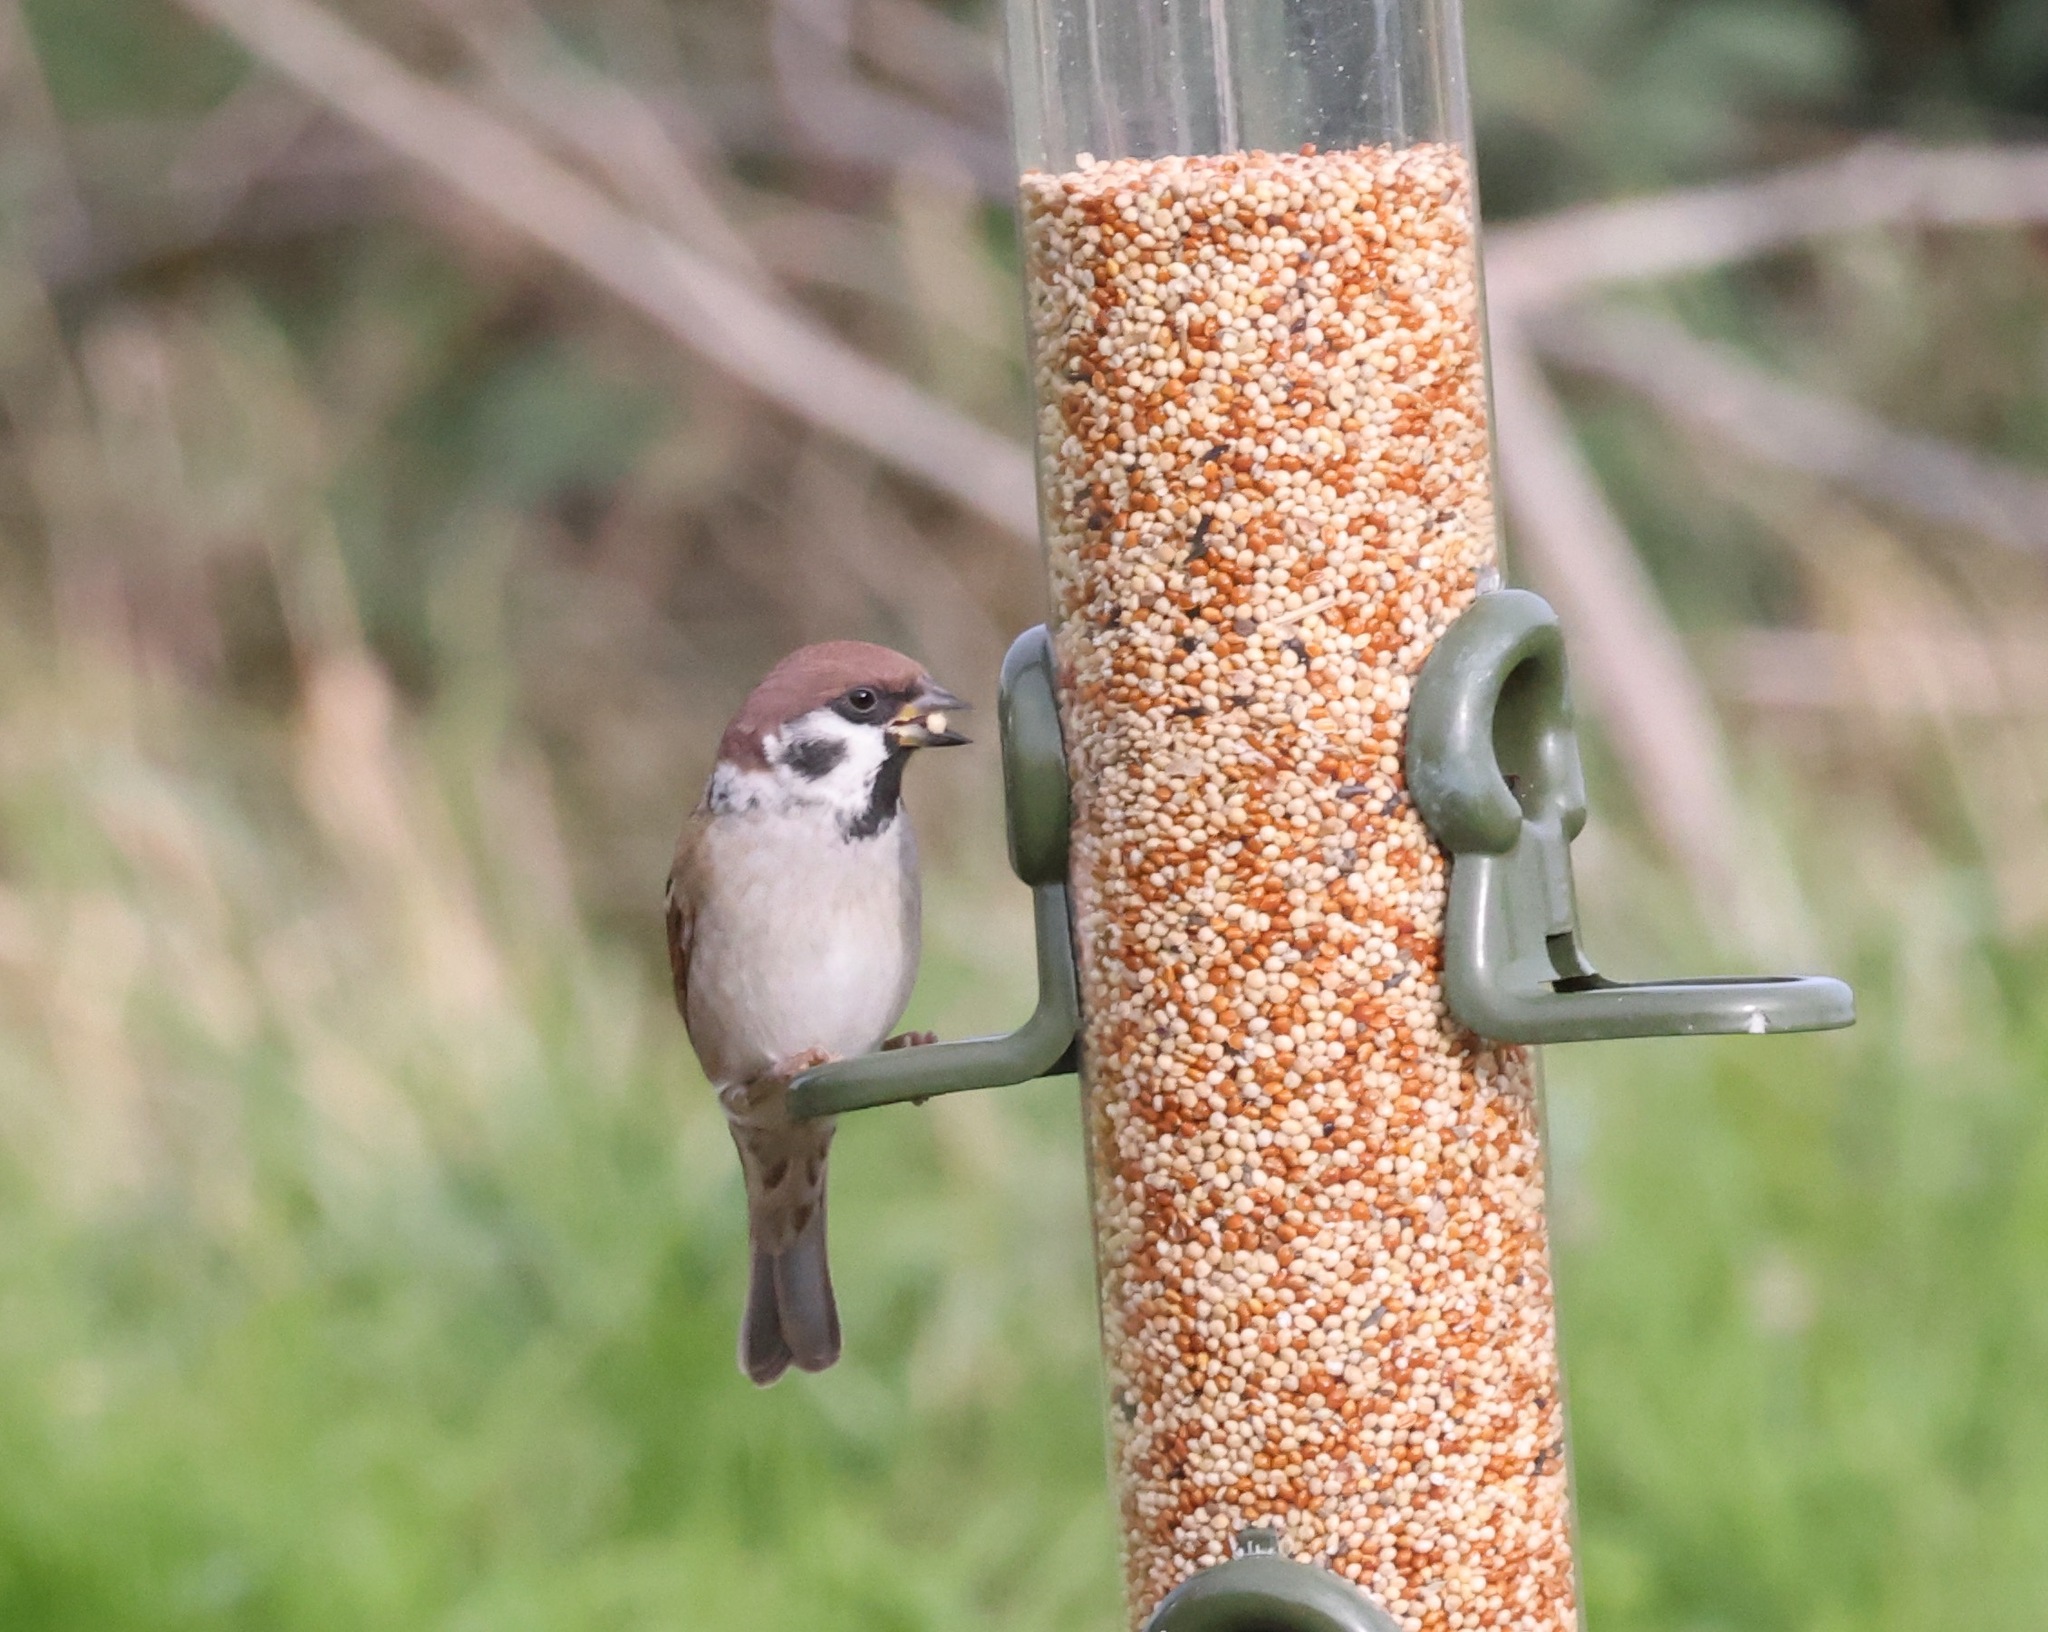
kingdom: Animalia
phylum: Chordata
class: Aves
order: Passeriformes
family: Passeridae
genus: Passer
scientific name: Passer montanus
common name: Eurasian tree sparrow
